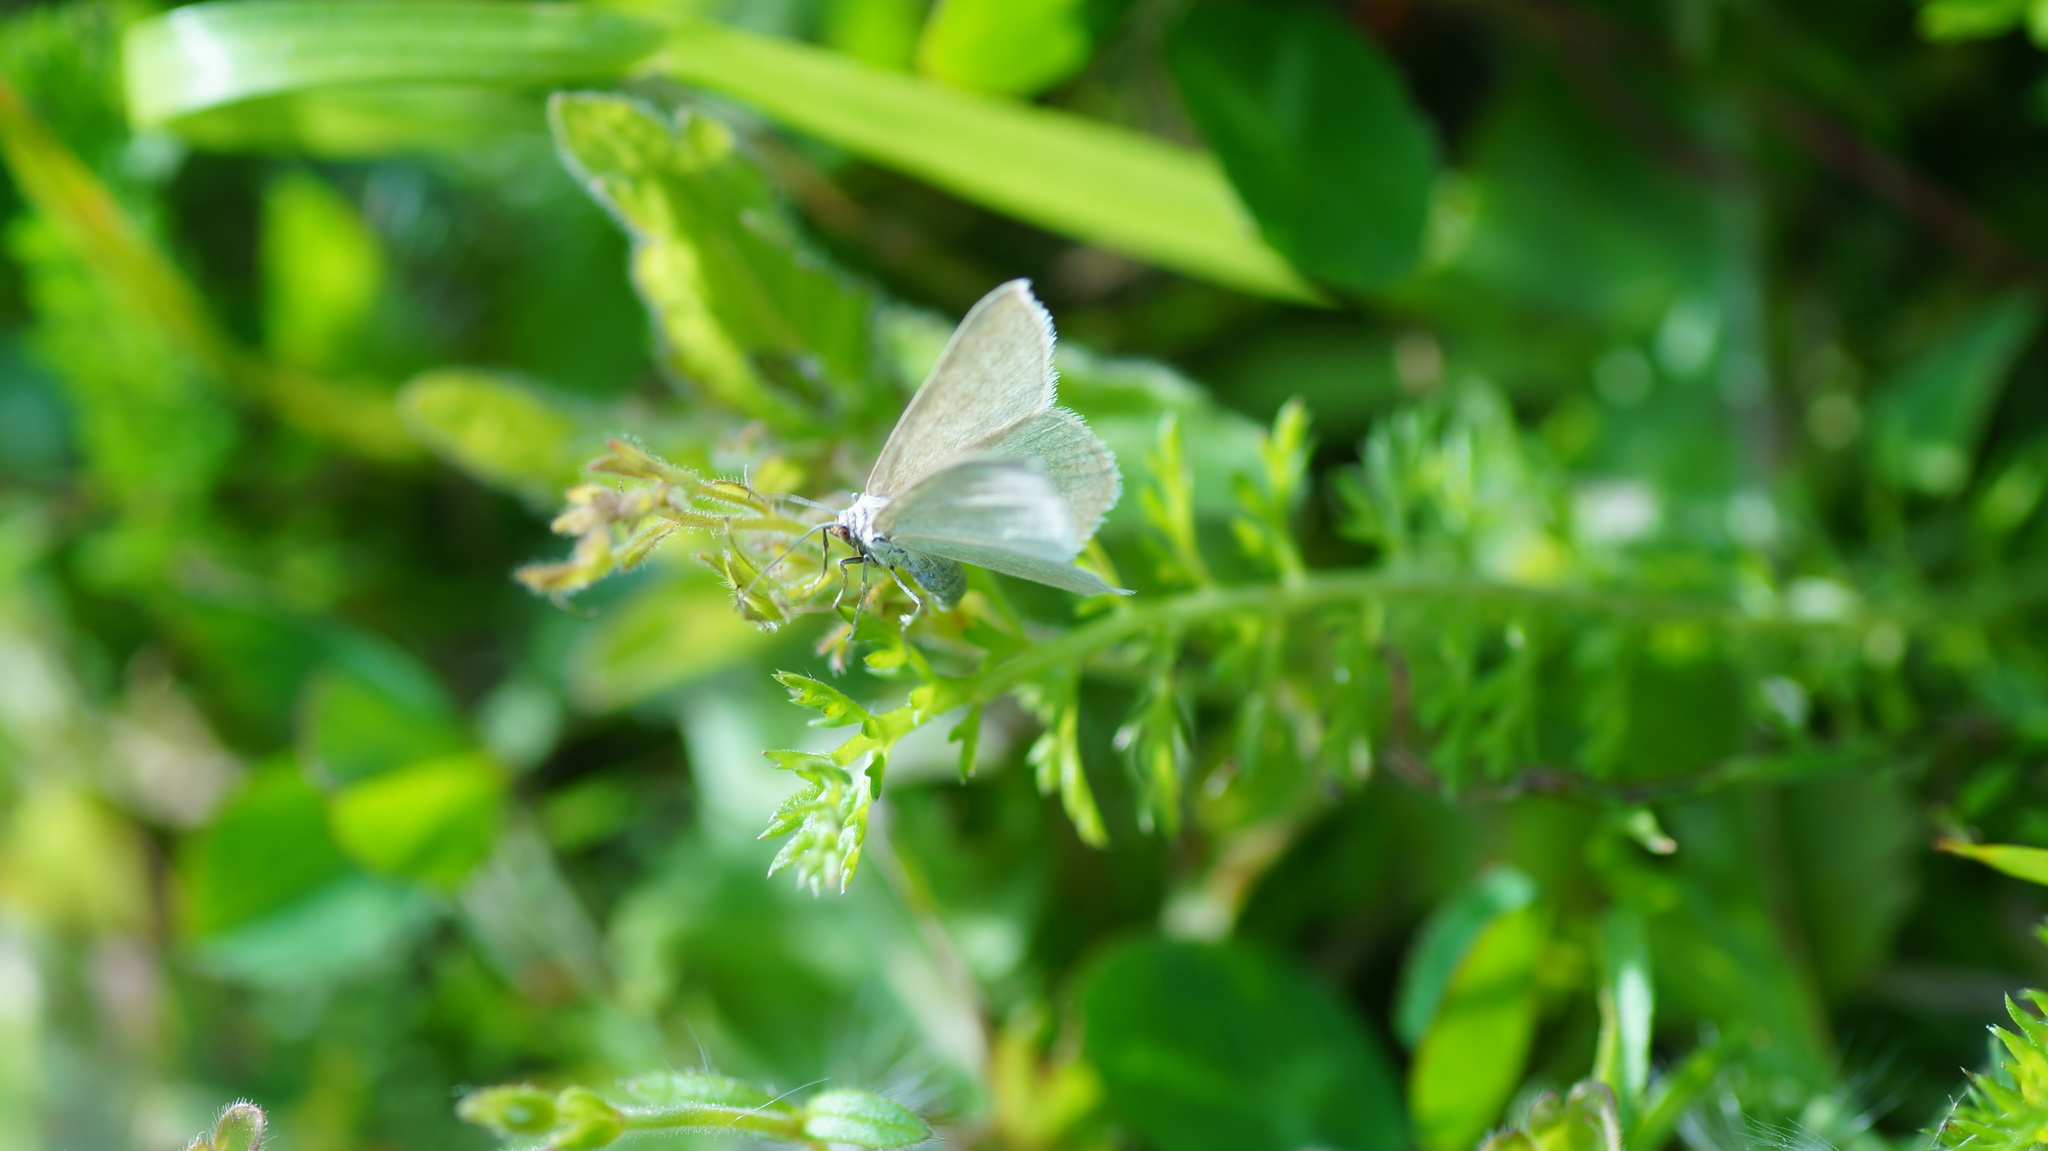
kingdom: Animalia
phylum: Arthropoda
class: Insecta
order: Lepidoptera
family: Geometridae
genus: Chlorissa
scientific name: Chlorissa viridata
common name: Small grass emerald
